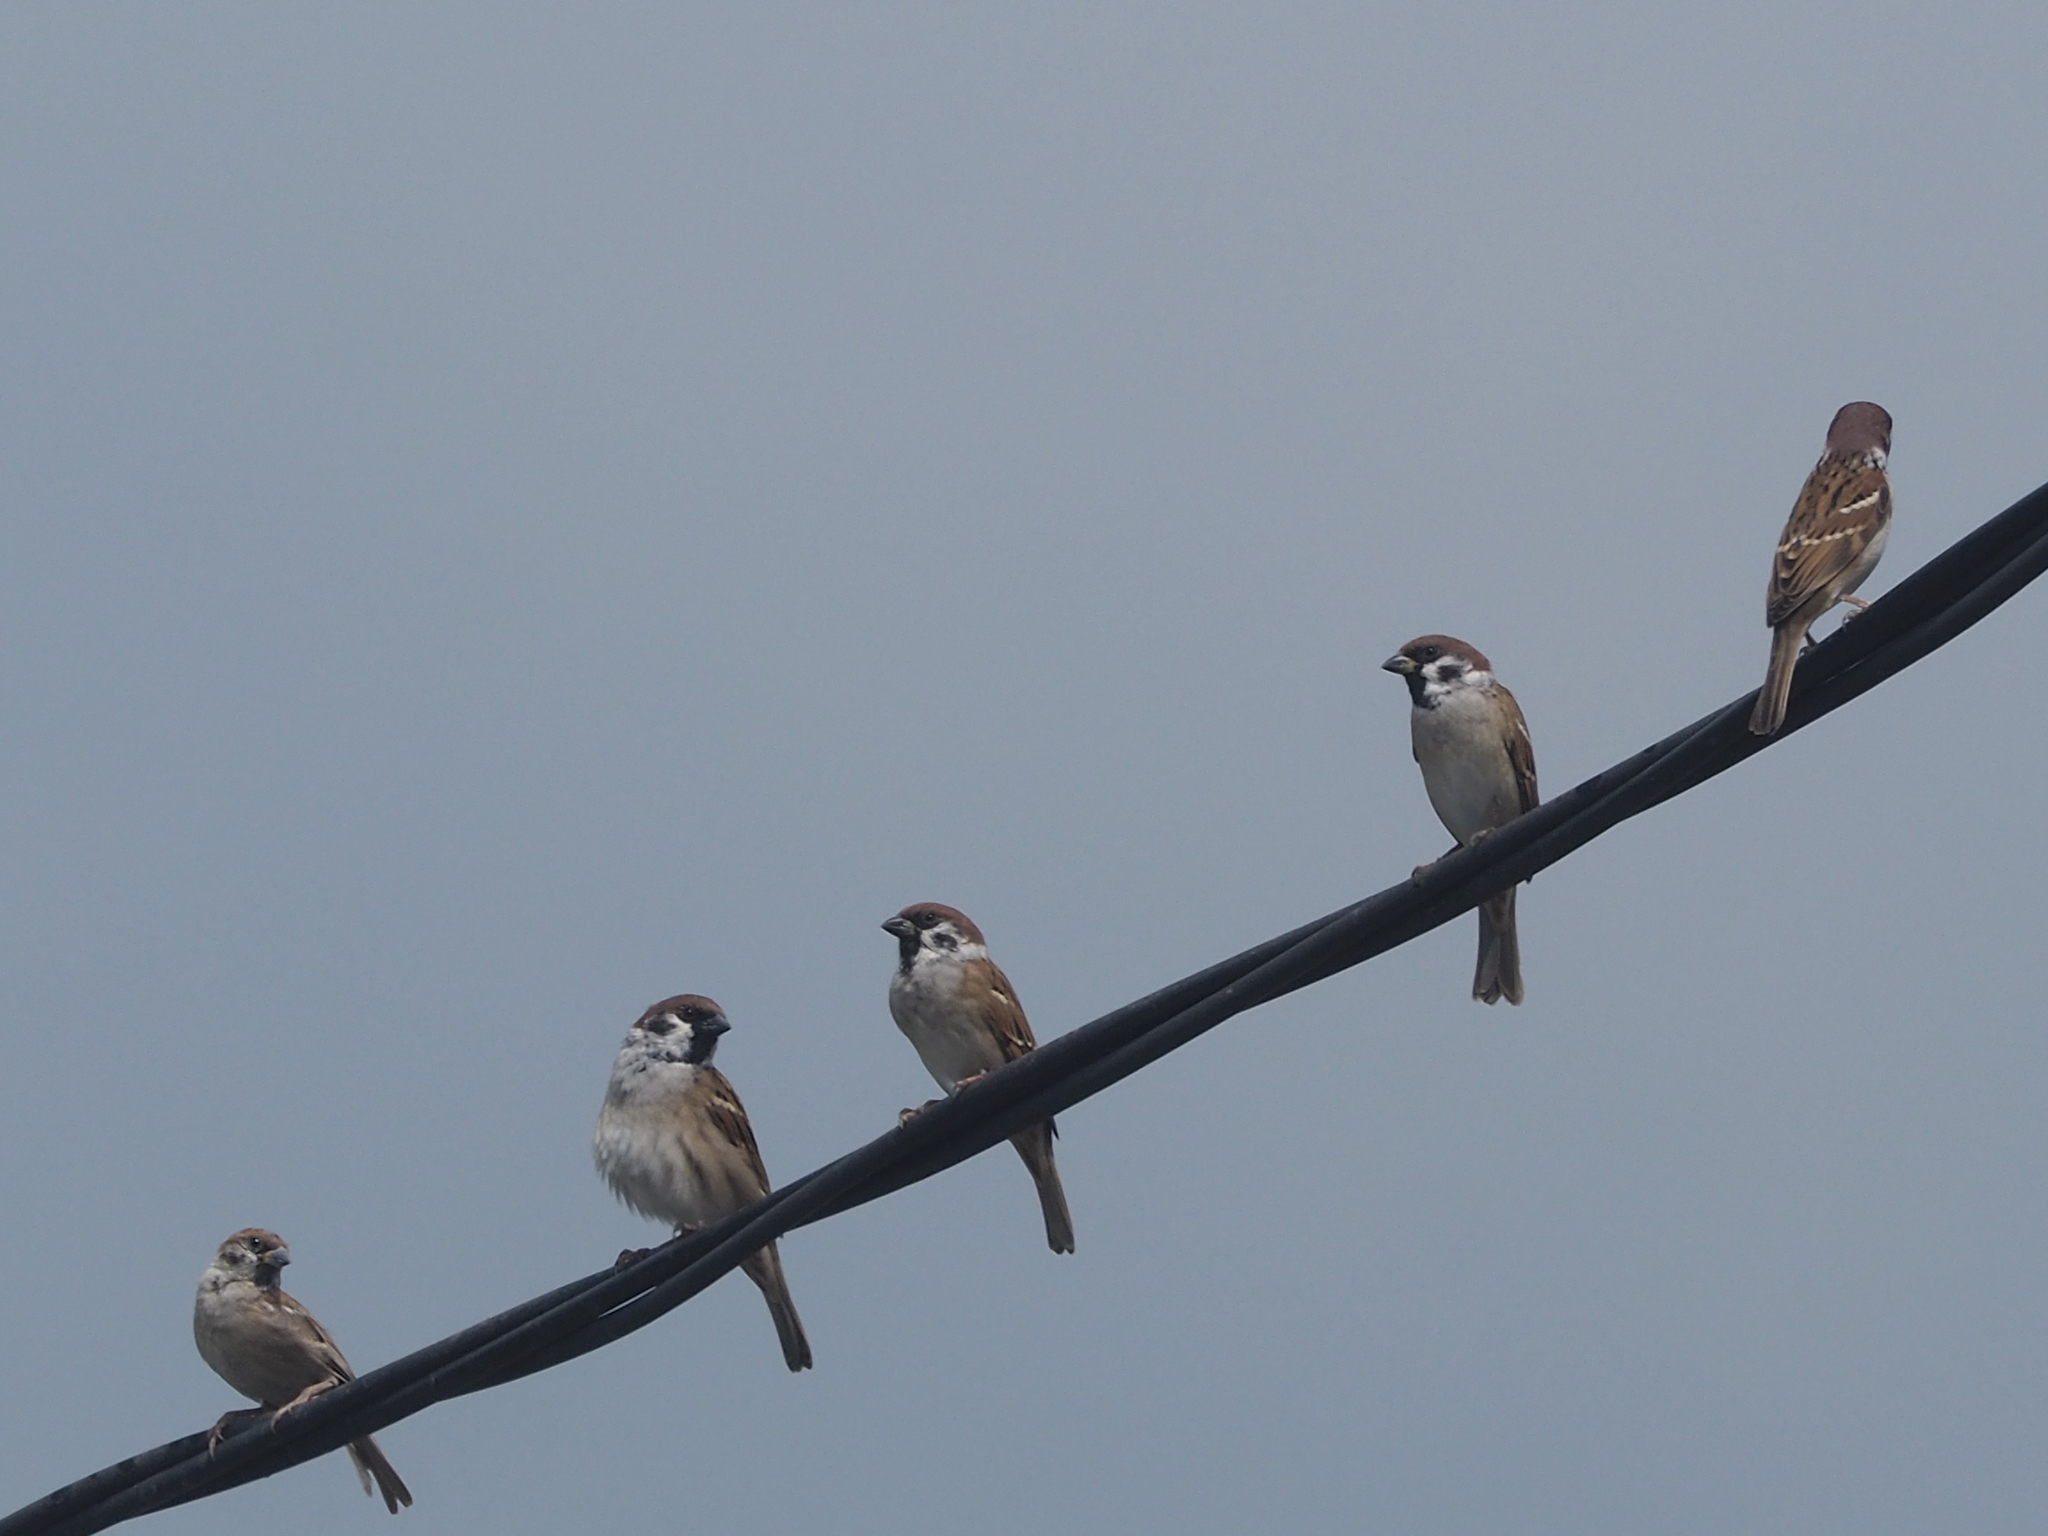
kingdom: Animalia
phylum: Chordata
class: Aves
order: Passeriformes
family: Passeridae
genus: Passer
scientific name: Passer montanus
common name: Eurasian tree sparrow
